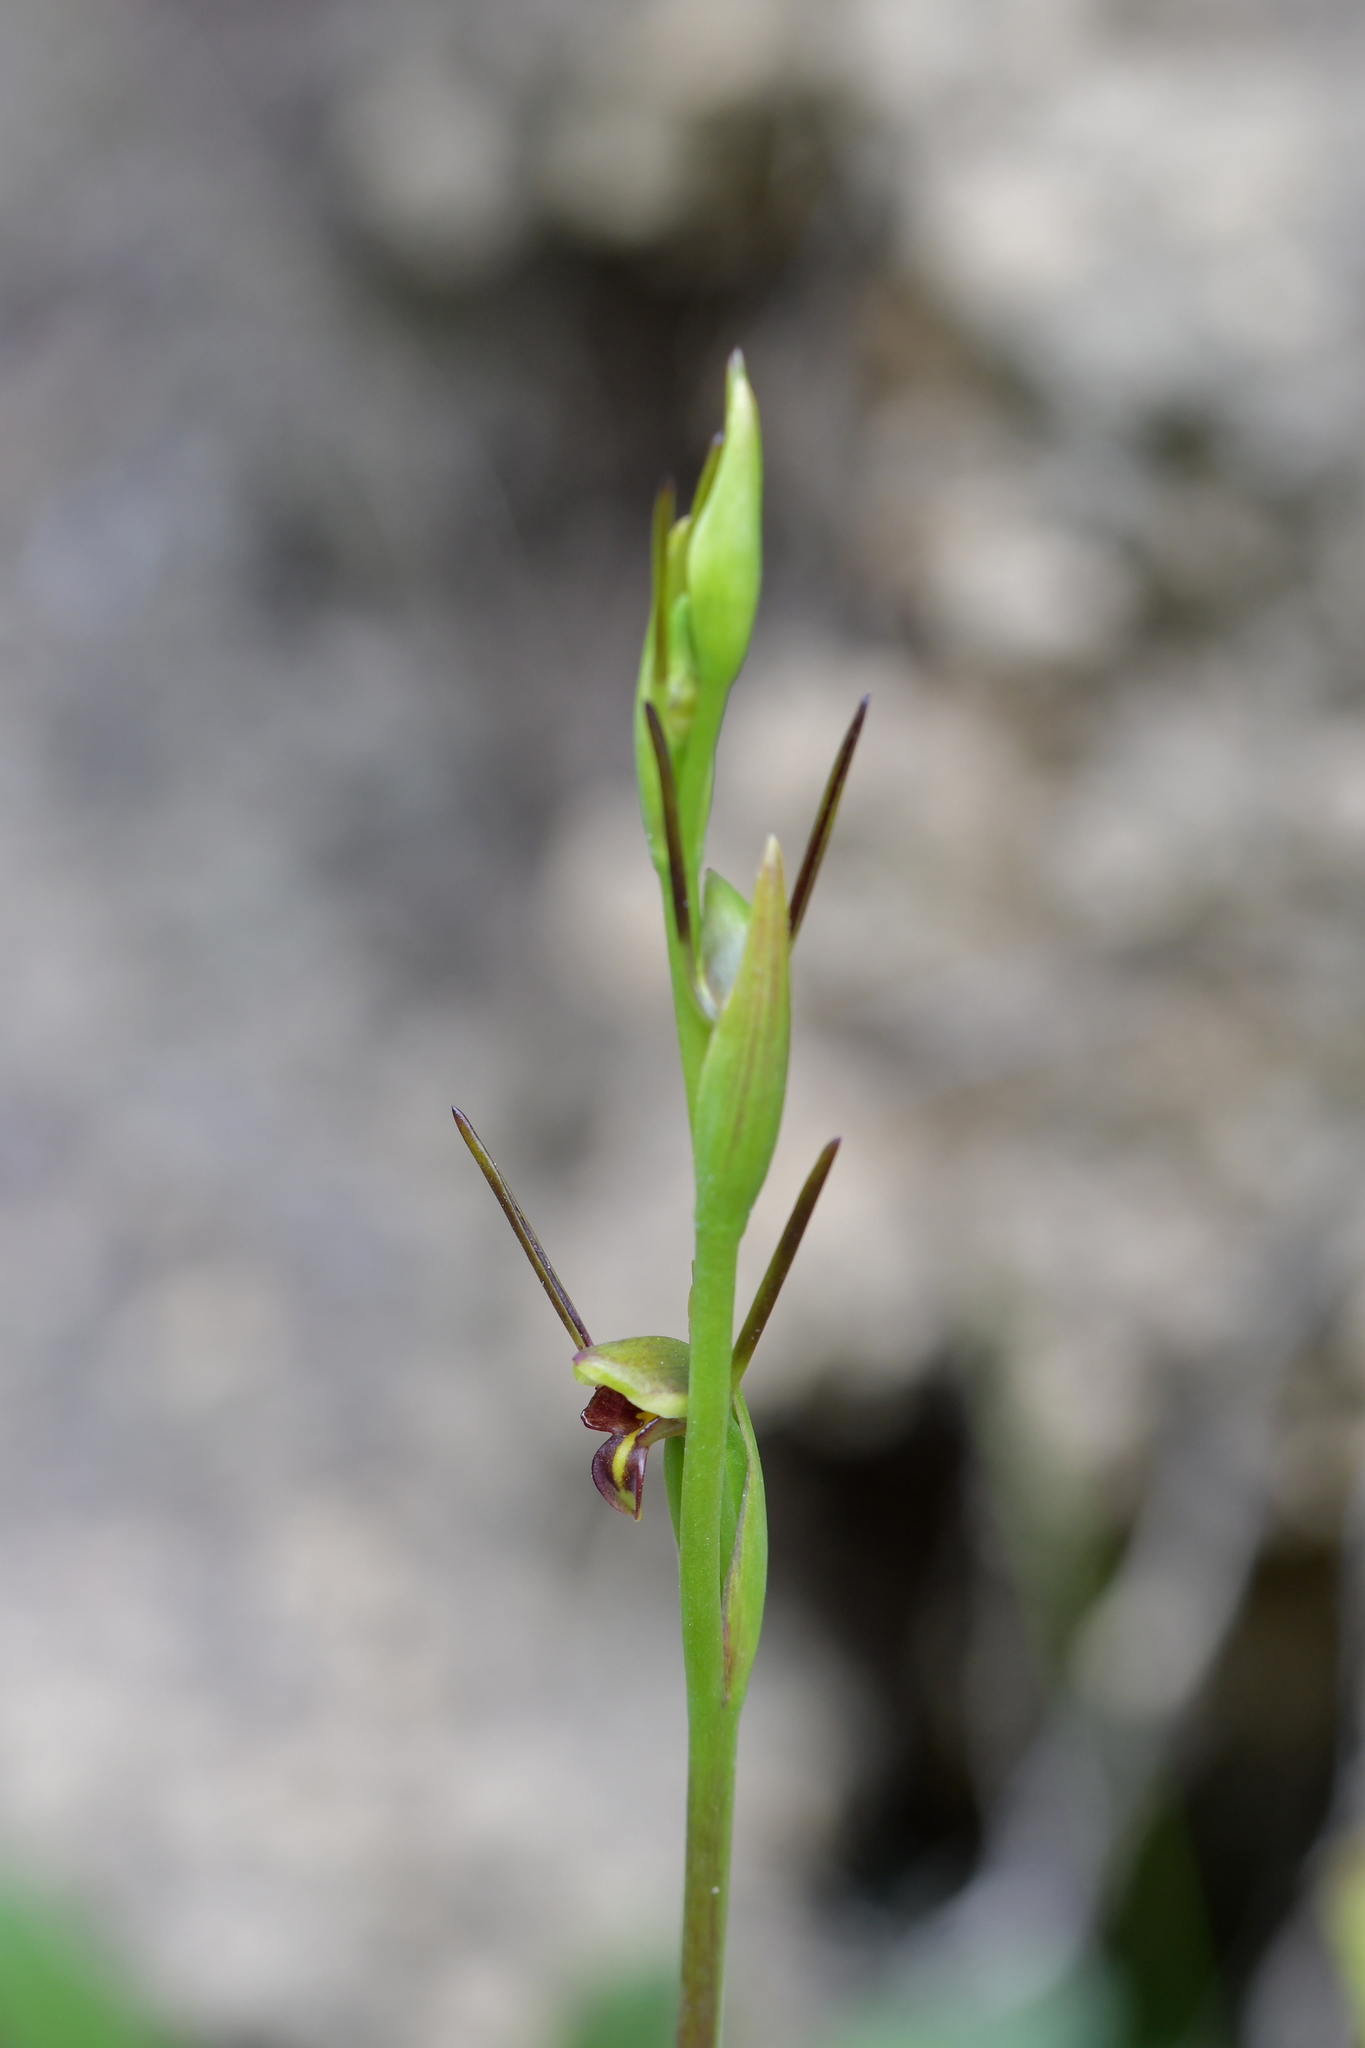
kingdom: Plantae
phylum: Tracheophyta
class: Liliopsida
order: Asparagales
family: Orchidaceae
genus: Orthoceras
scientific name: Orthoceras novae-zeelandiae
